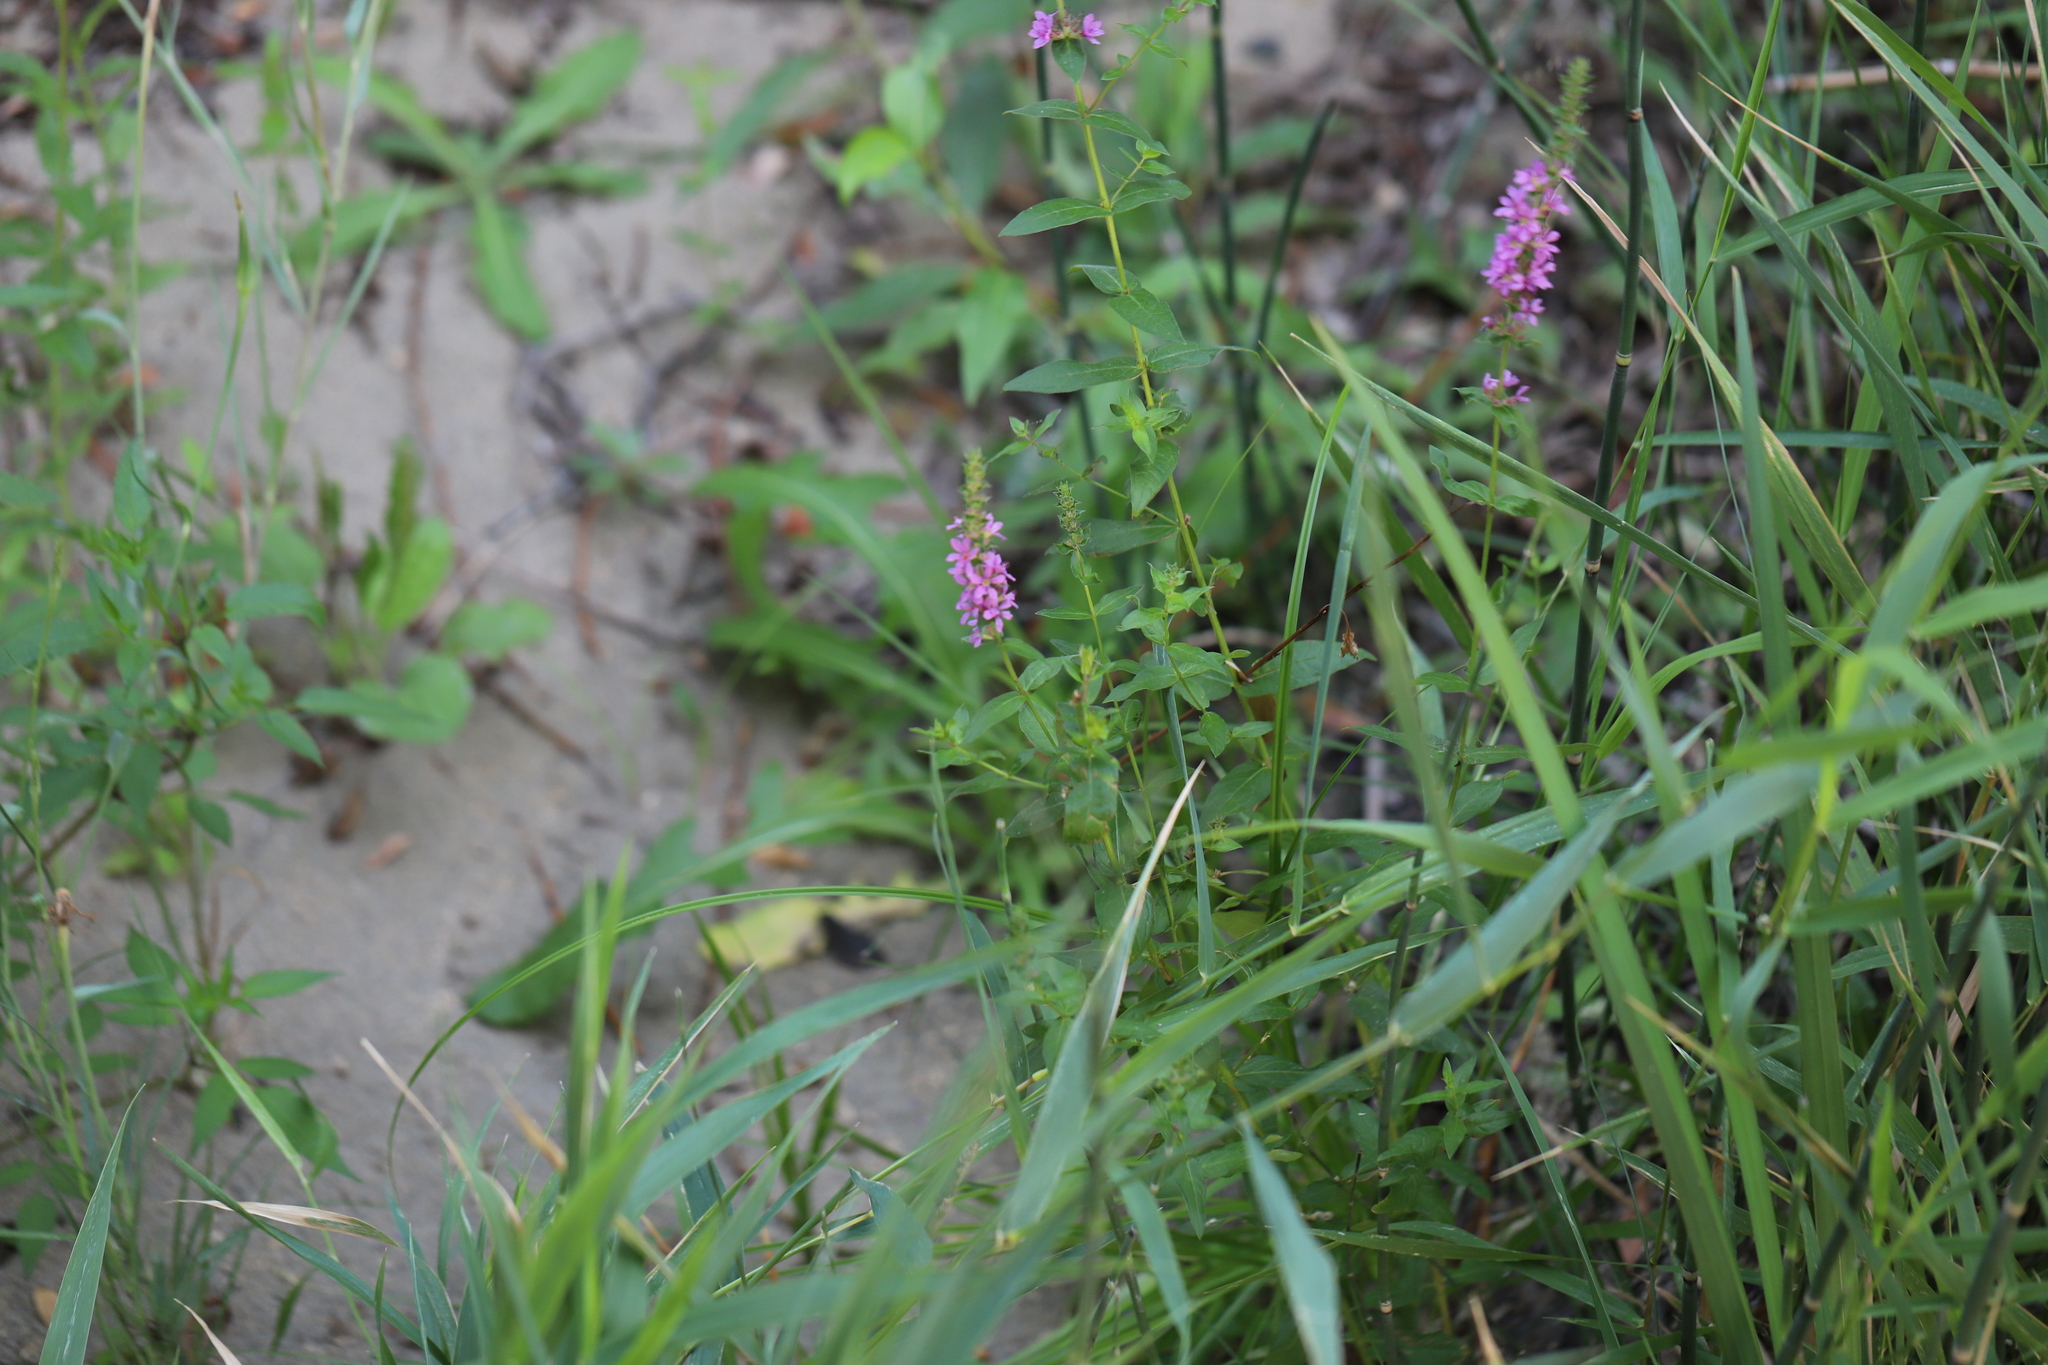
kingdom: Plantae
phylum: Tracheophyta
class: Magnoliopsida
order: Myrtales
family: Lythraceae
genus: Lythrum
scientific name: Lythrum salicaria
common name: Purple loosestrife
